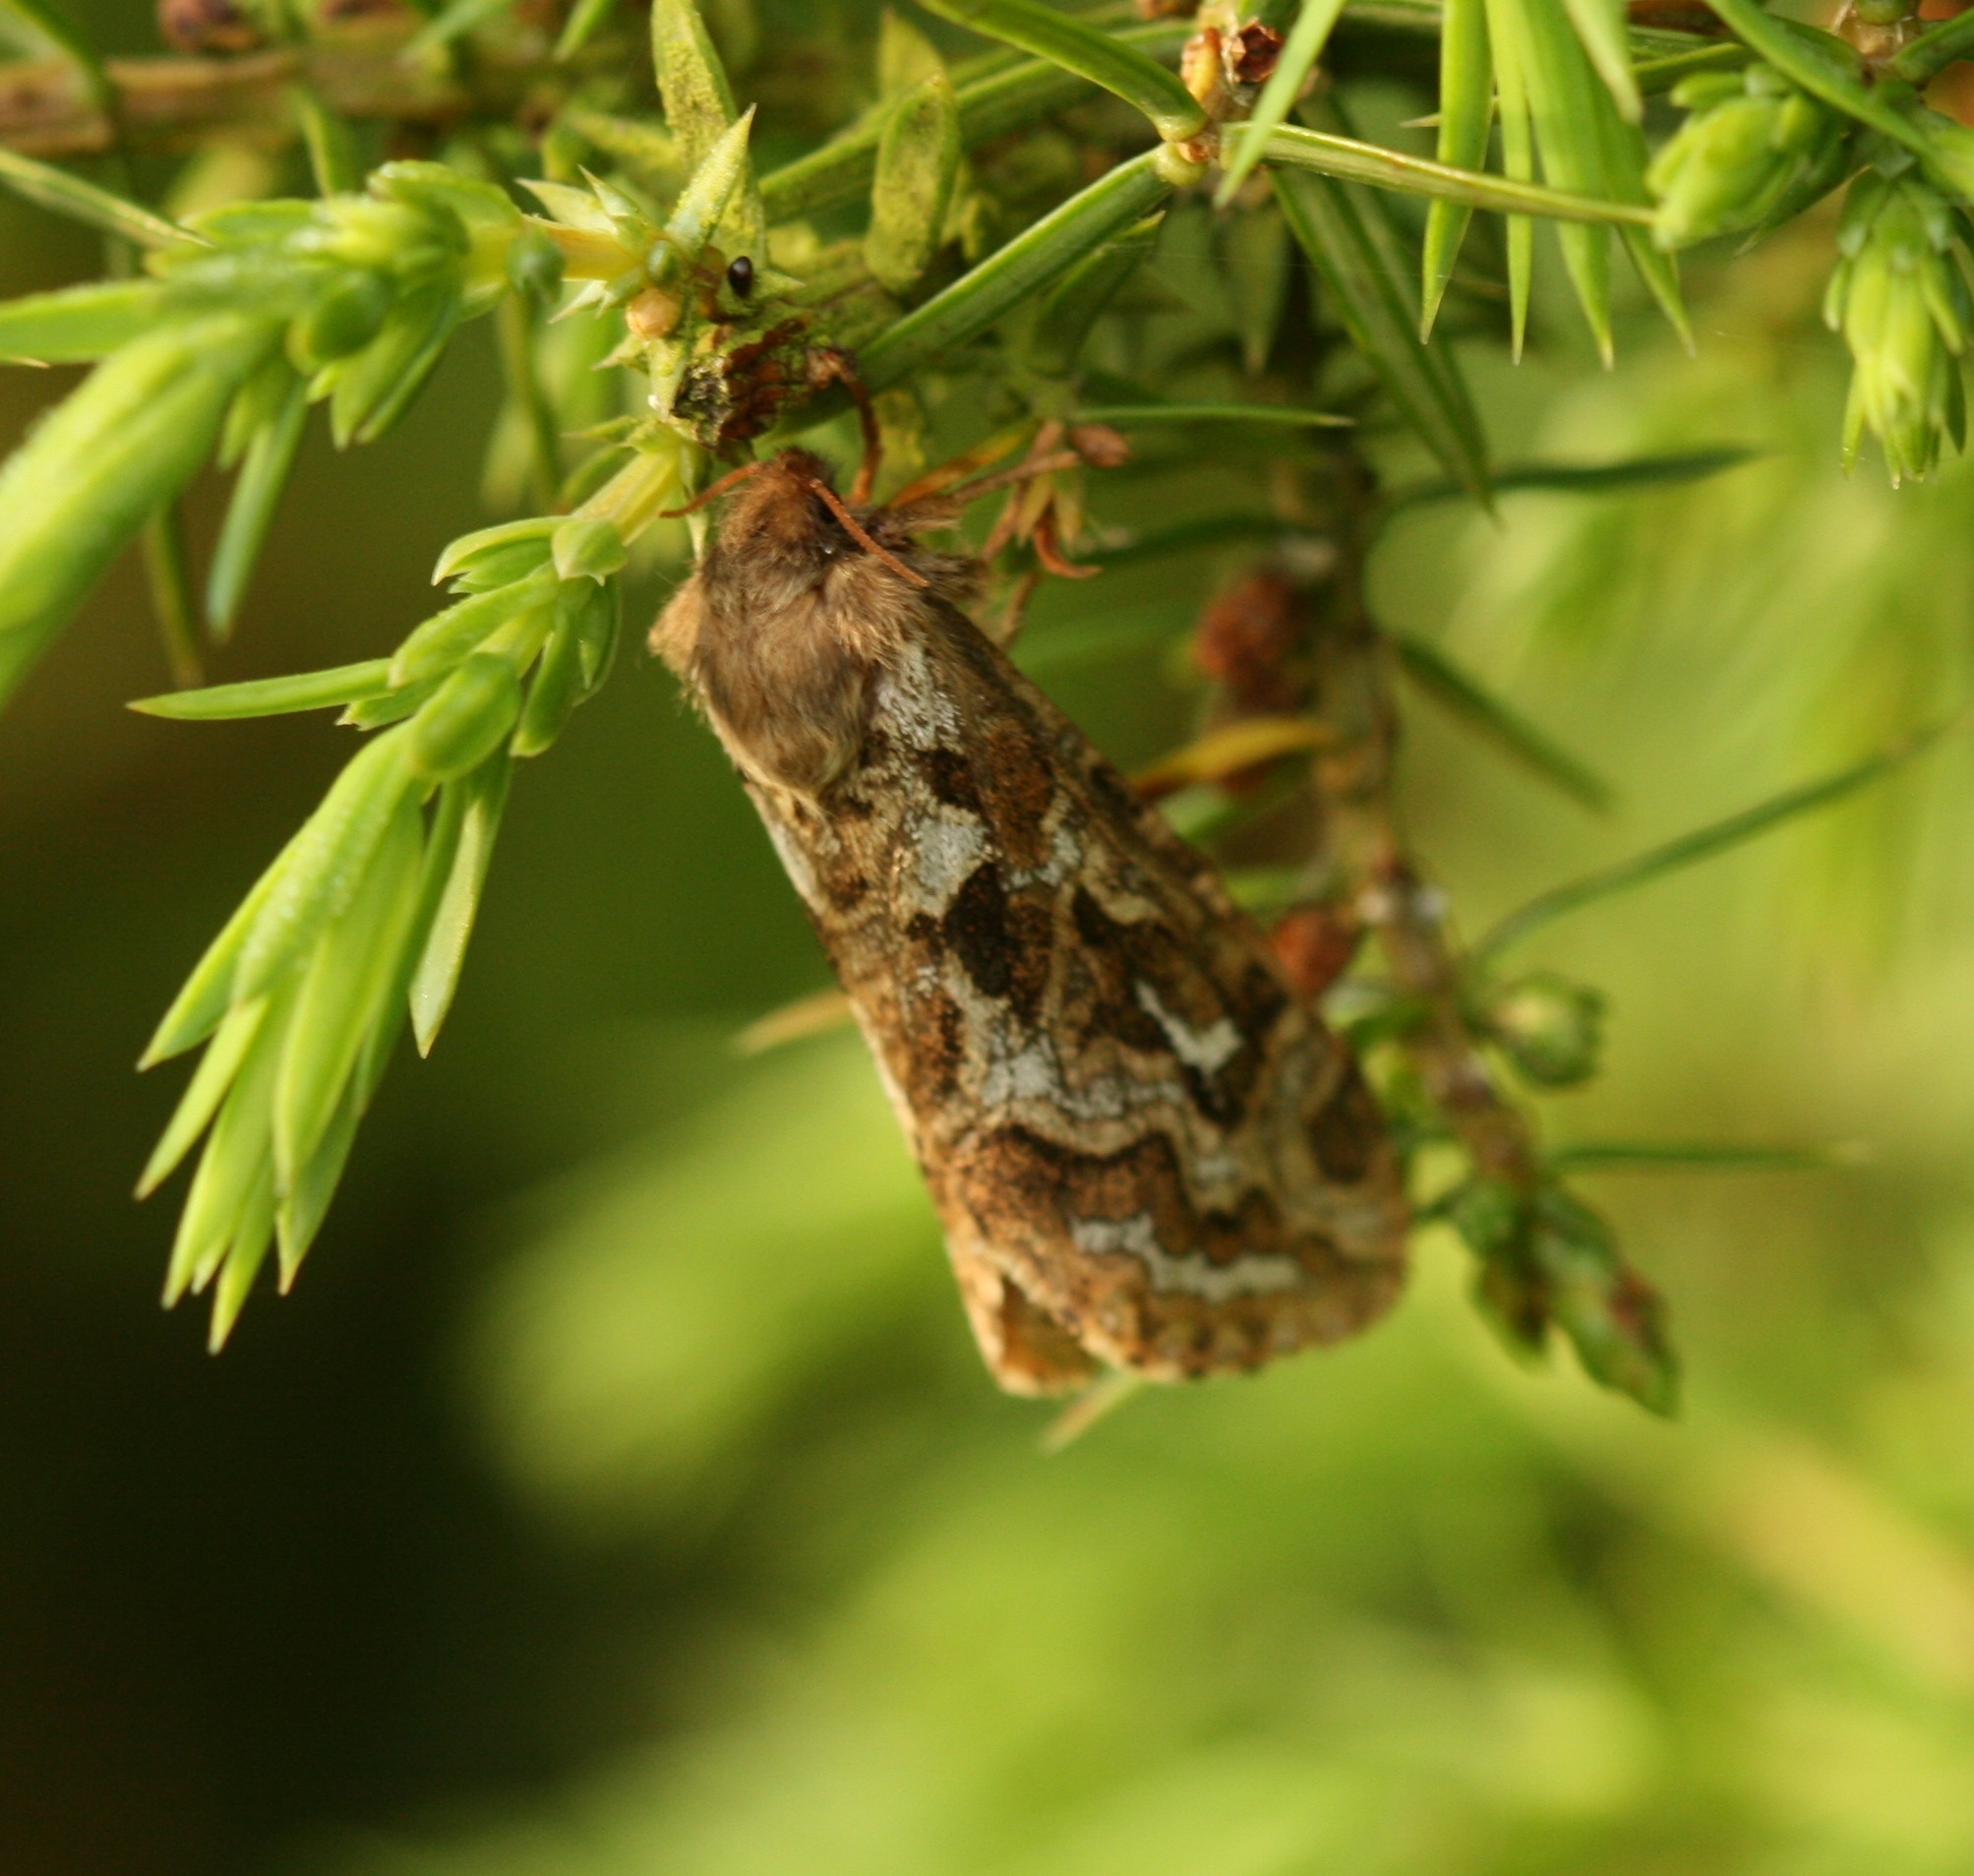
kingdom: Animalia
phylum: Arthropoda
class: Insecta
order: Lepidoptera
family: Hepialidae
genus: Korscheltellus
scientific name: Korscheltellus fusconebulosus
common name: Map-winged swift
